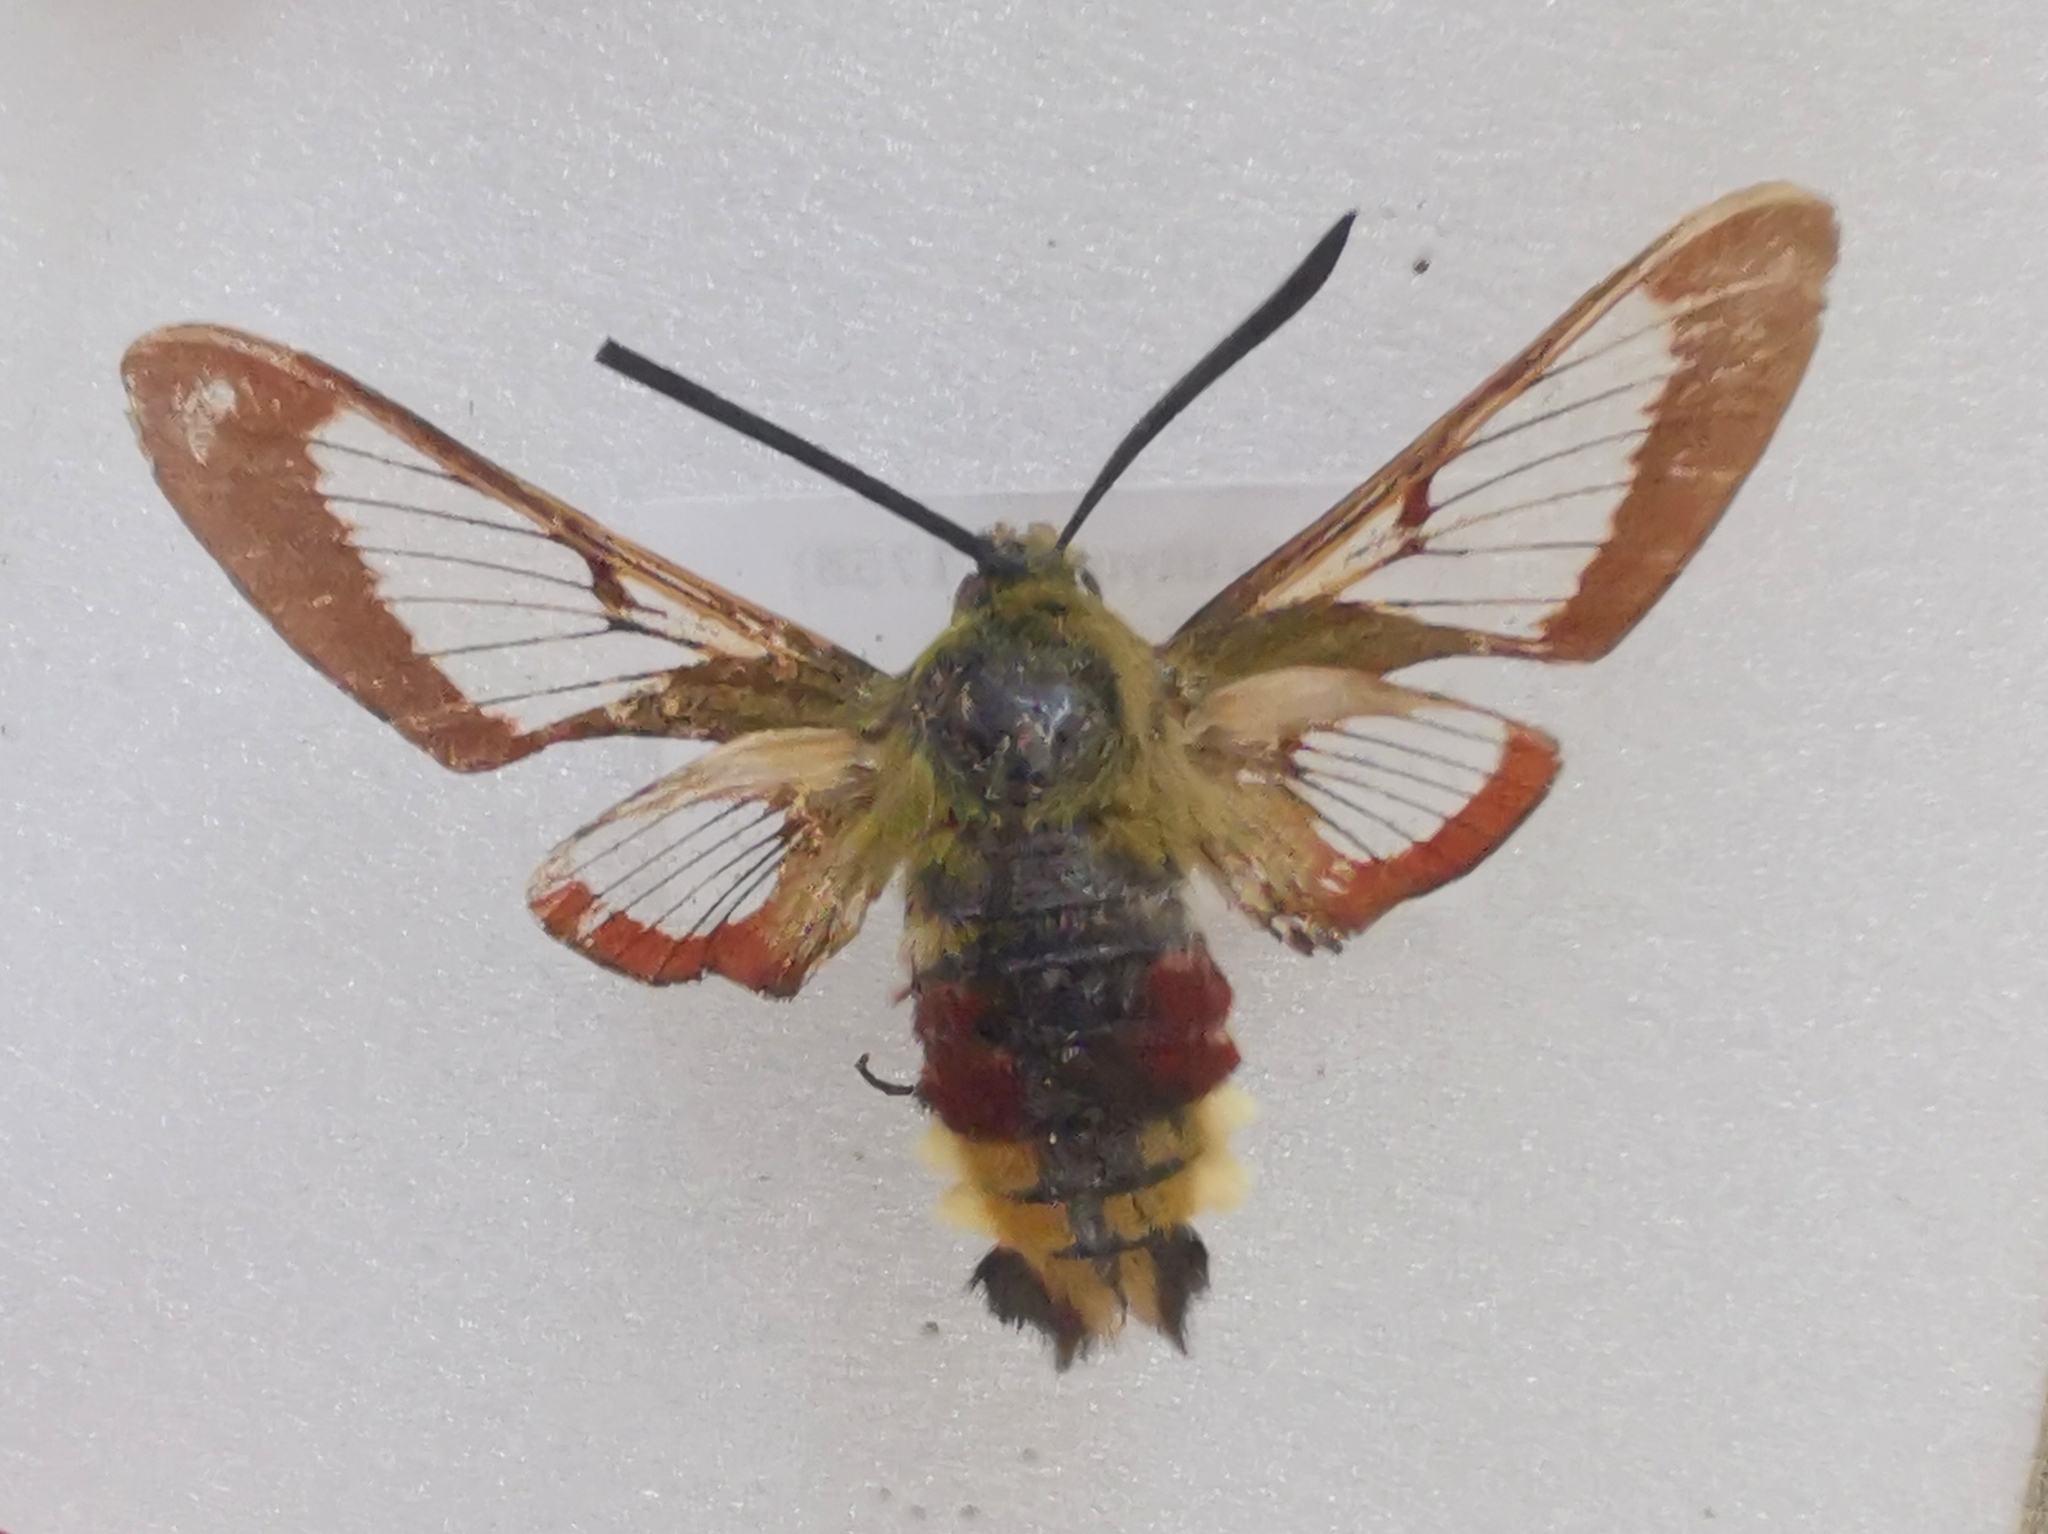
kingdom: Animalia
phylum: Arthropoda
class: Insecta
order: Lepidoptera
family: Sphingidae
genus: Hemaris
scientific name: Hemaris fuciformis
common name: Broad-bordered bee hawk-moth
